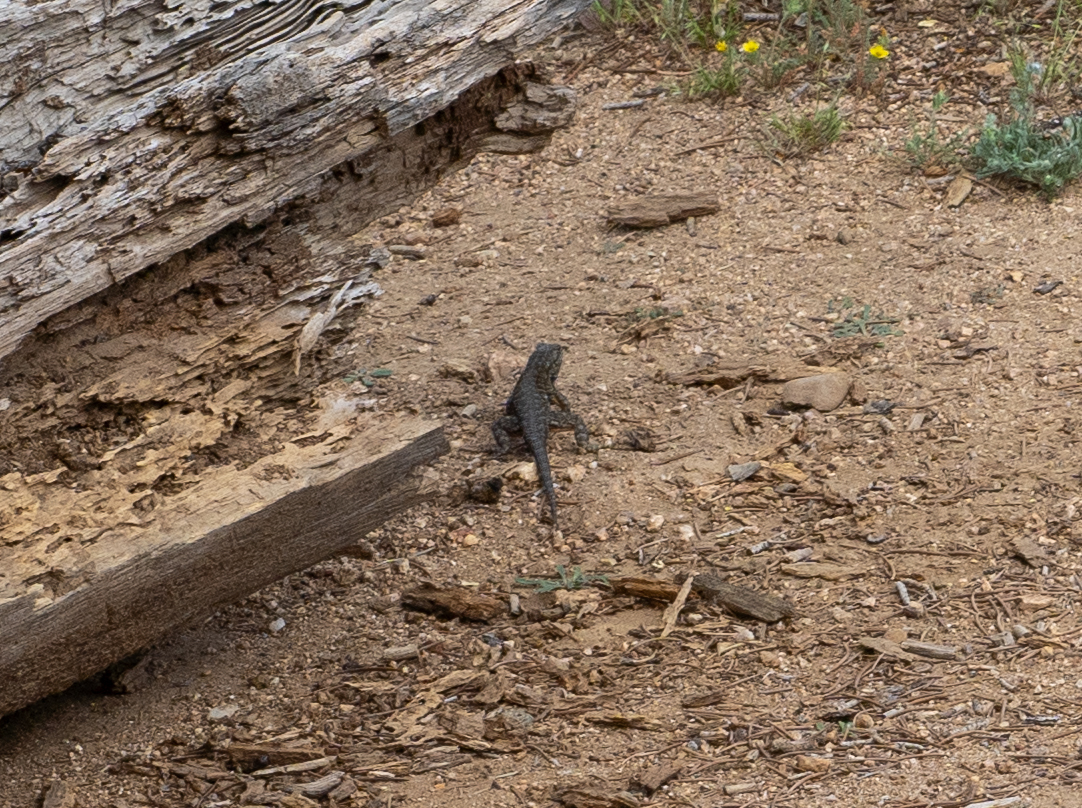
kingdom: Animalia
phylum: Chordata
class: Squamata
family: Phrynosomatidae
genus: Sceloporus
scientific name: Sceloporus occidentalis
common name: Western fence lizard
